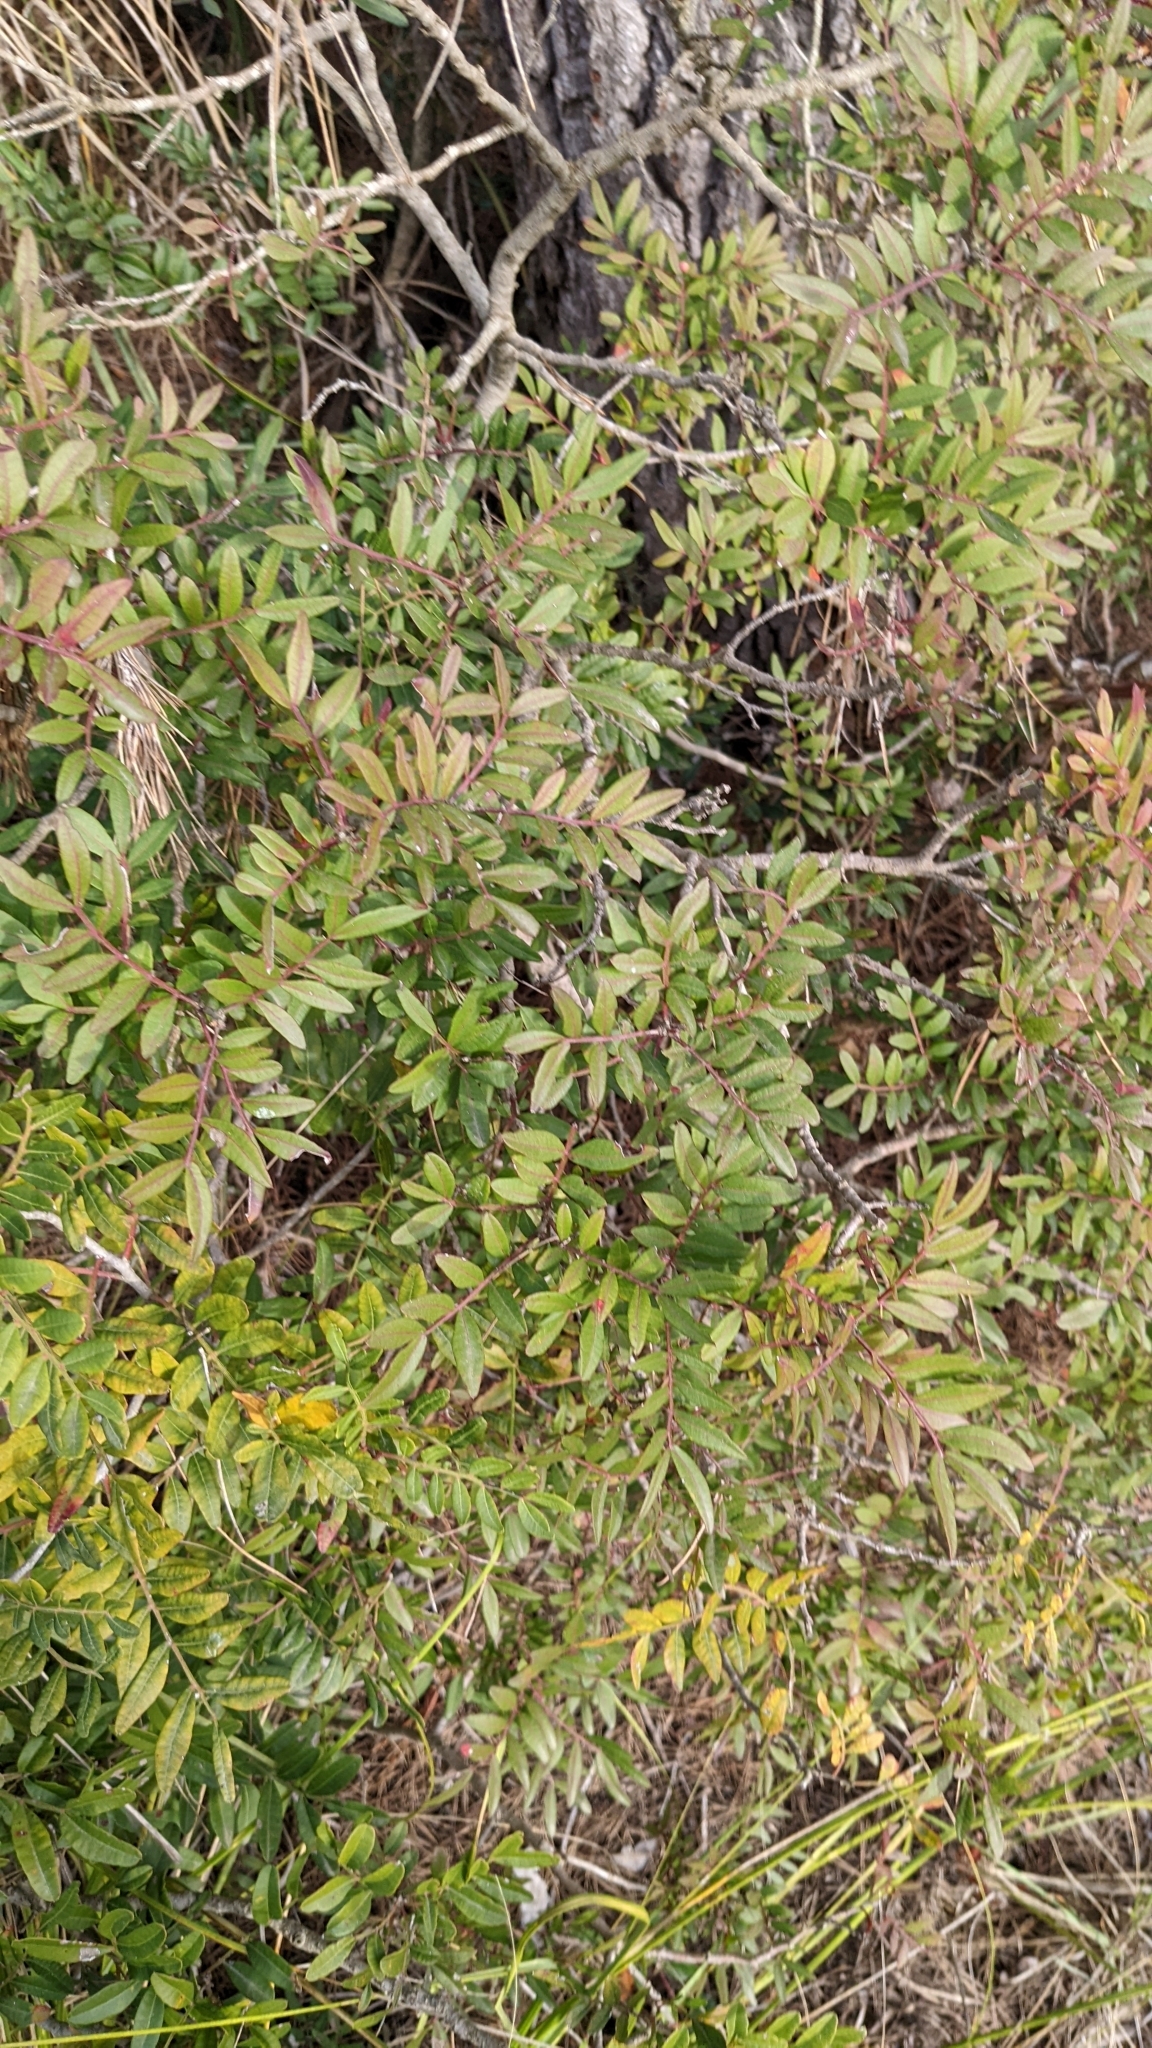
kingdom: Plantae
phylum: Tracheophyta
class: Magnoliopsida
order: Sapindales
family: Anacardiaceae
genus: Pistacia
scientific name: Pistacia lentiscus
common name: Lentisk
